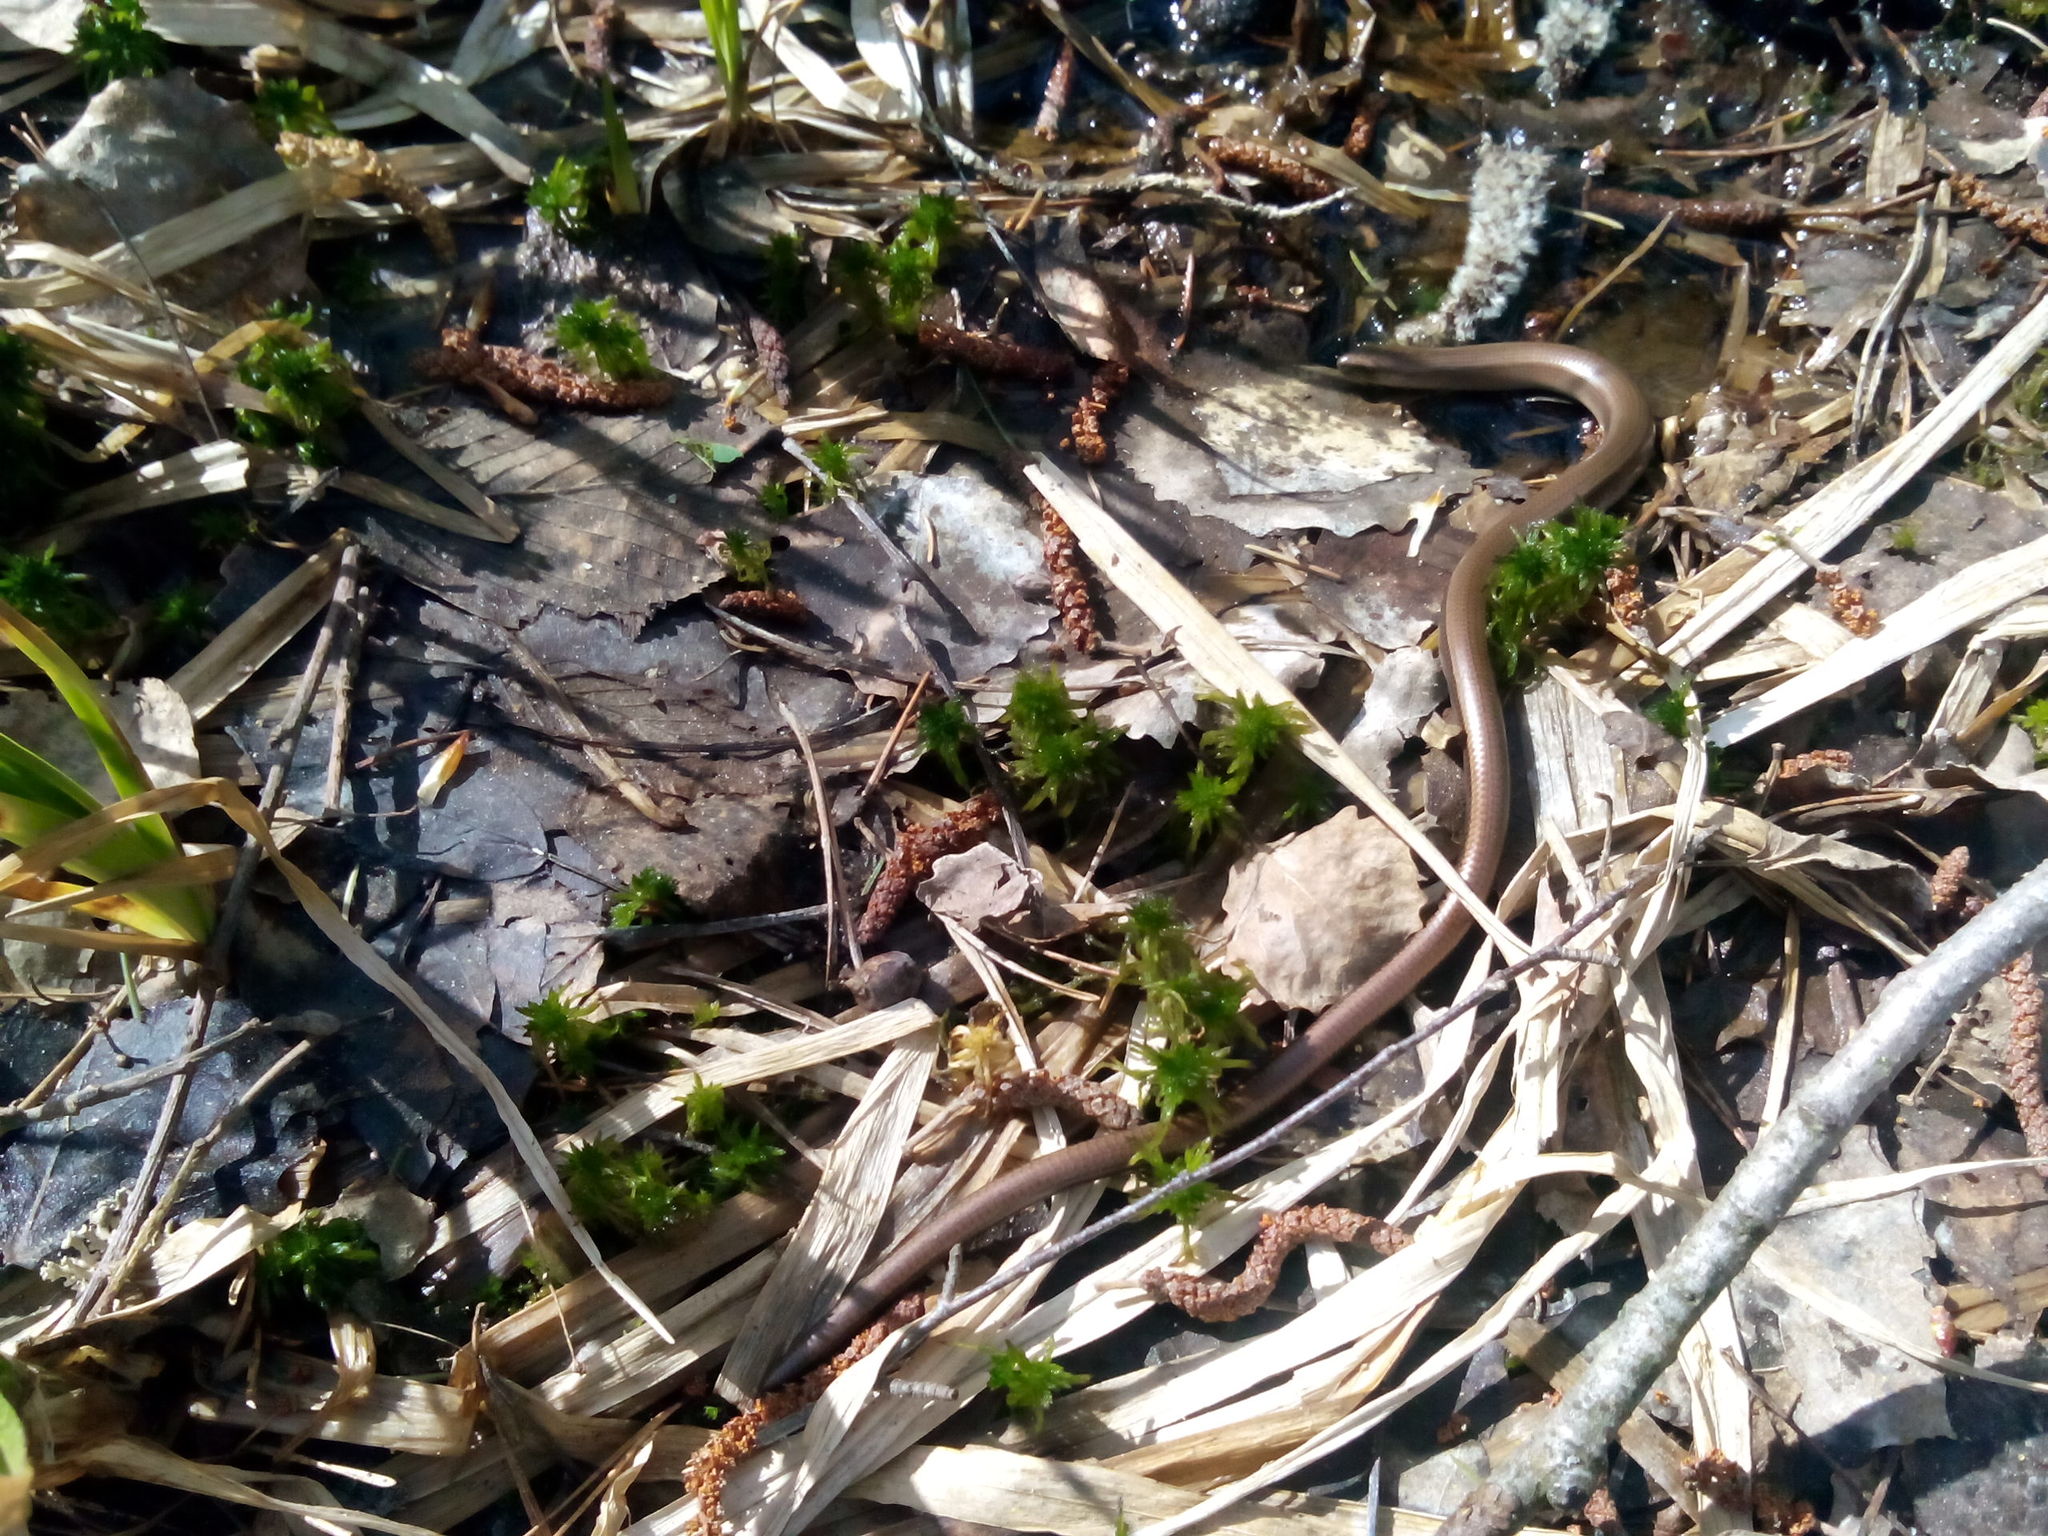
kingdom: Animalia
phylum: Chordata
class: Squamata
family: Anguidae
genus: Anguis
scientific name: Anguis colchica
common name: Slow worm
